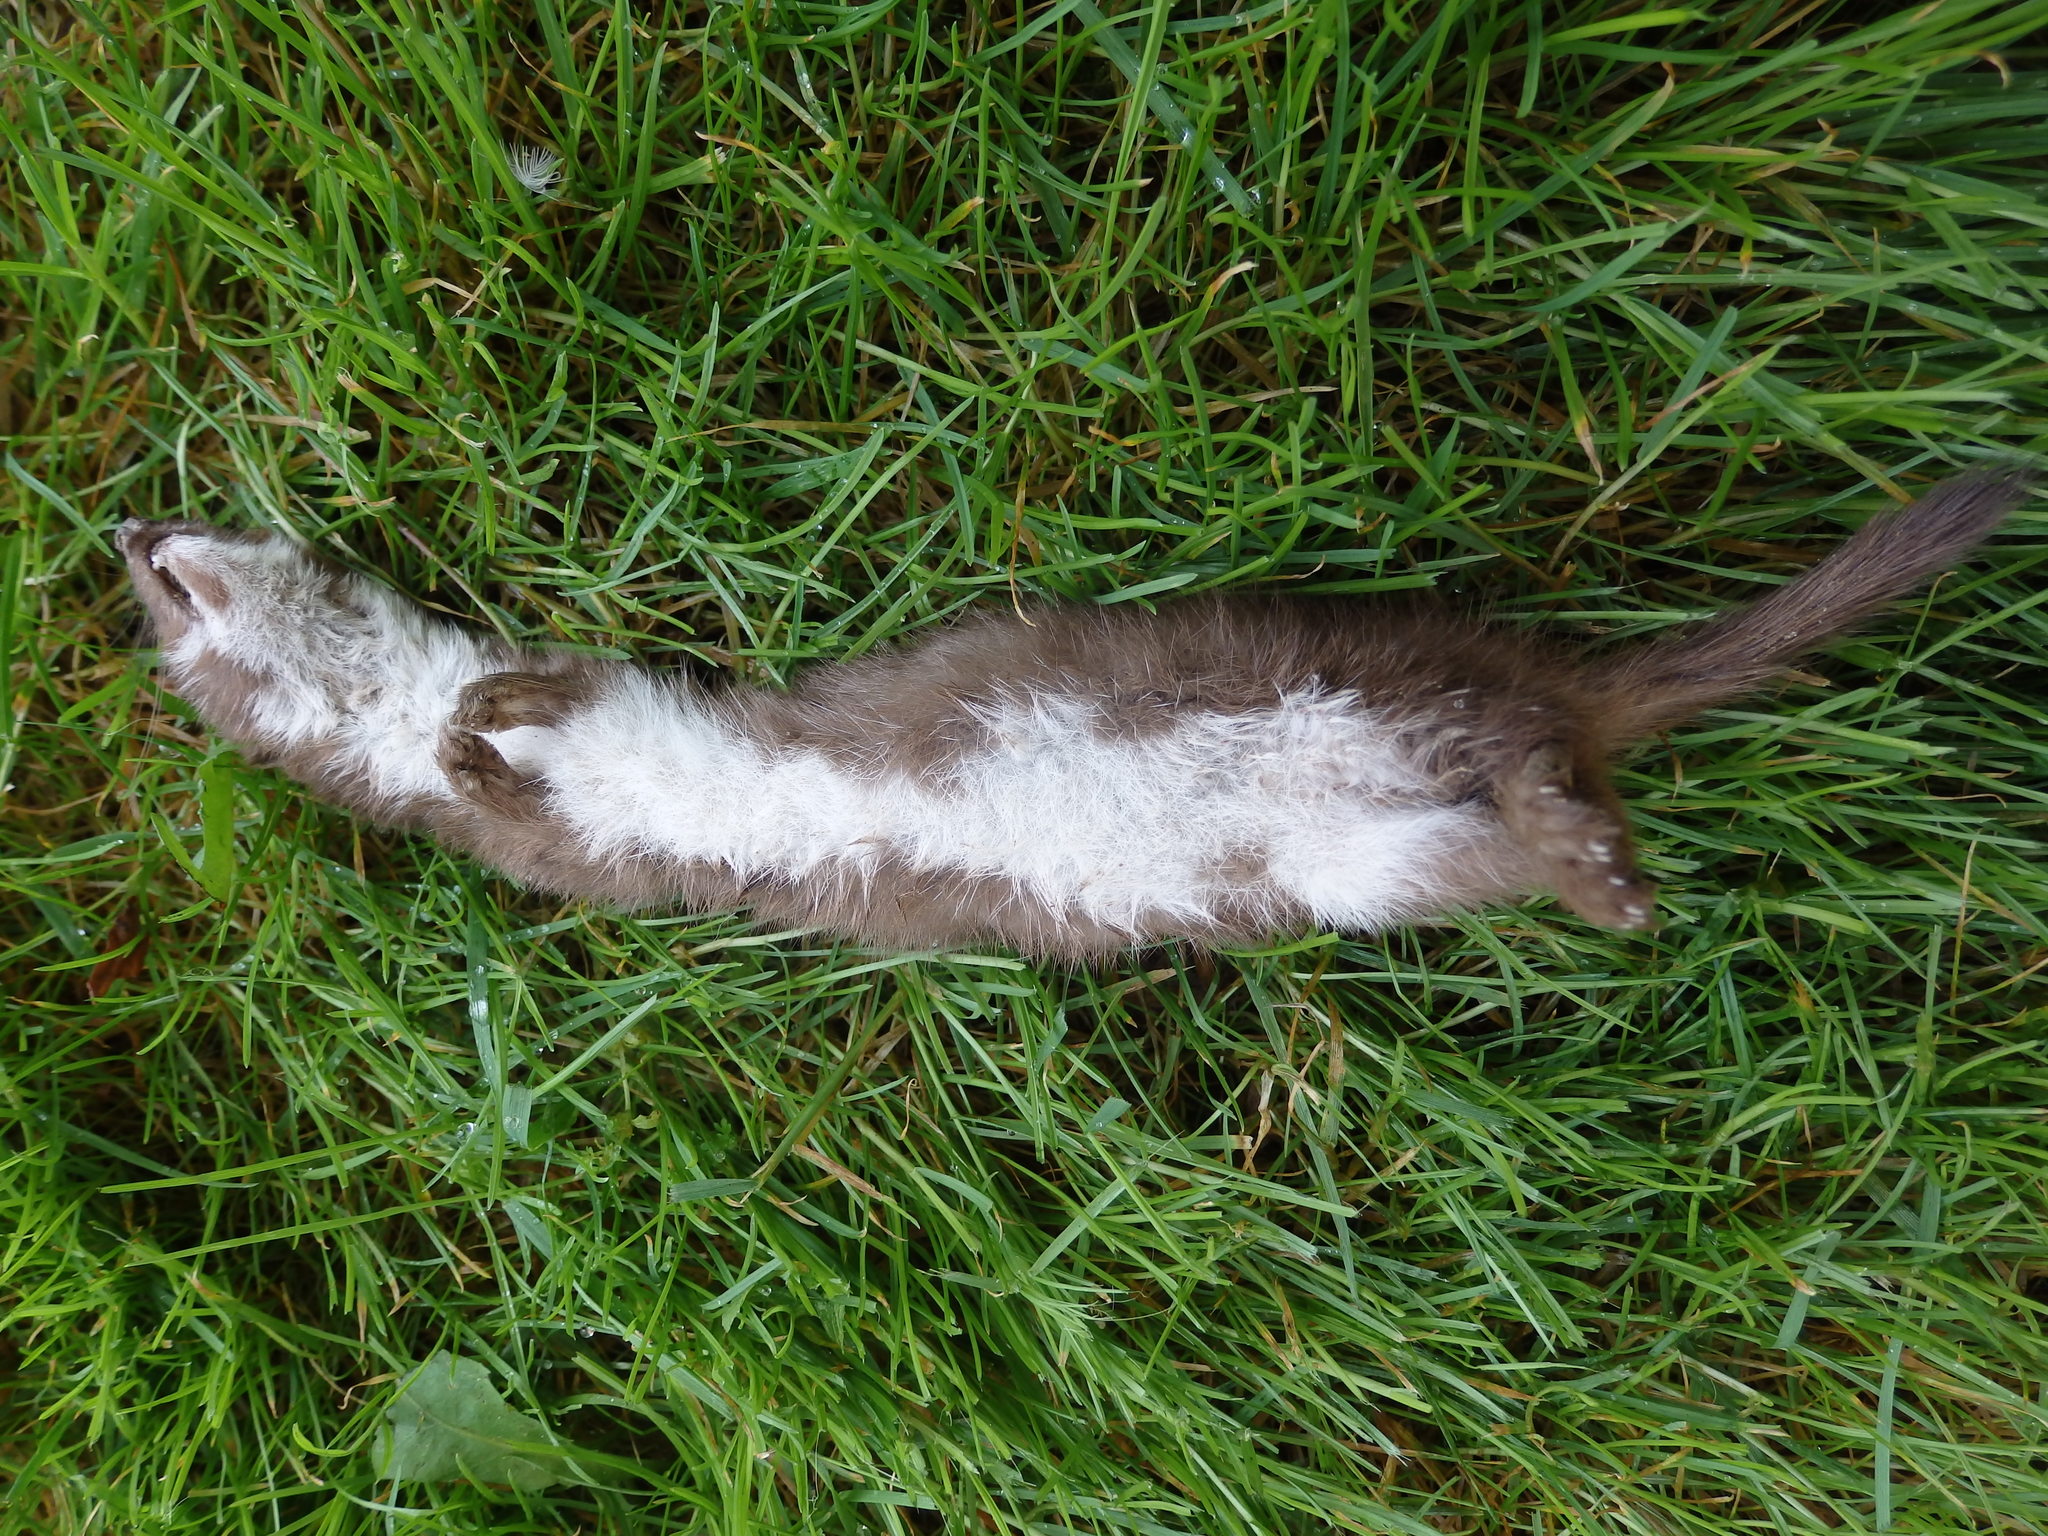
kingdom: Animalia
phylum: Chordata
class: Mammalia
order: Carnivora
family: Mustelidae
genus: Mustela
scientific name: Mustela nivalis
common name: Least weasel
